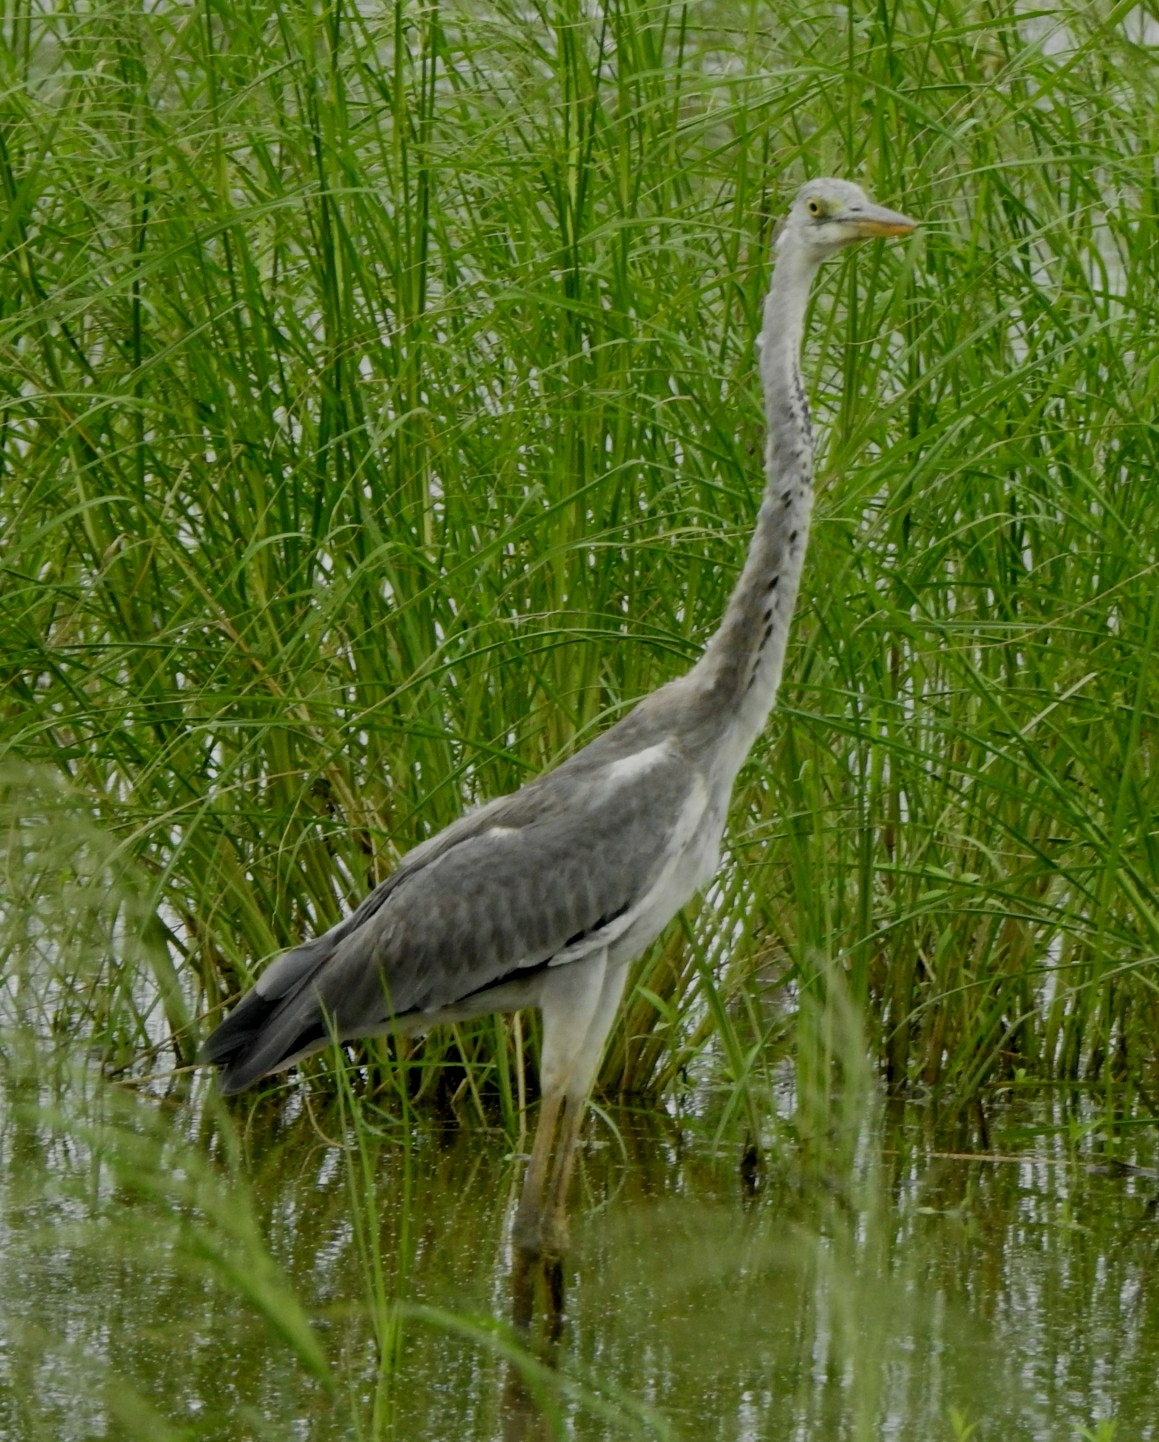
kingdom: Animalia
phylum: Chordata
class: Aves
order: Pelecaniformes
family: Ardeidae
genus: Ardea
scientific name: Ardea cinerea
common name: Grey heron
